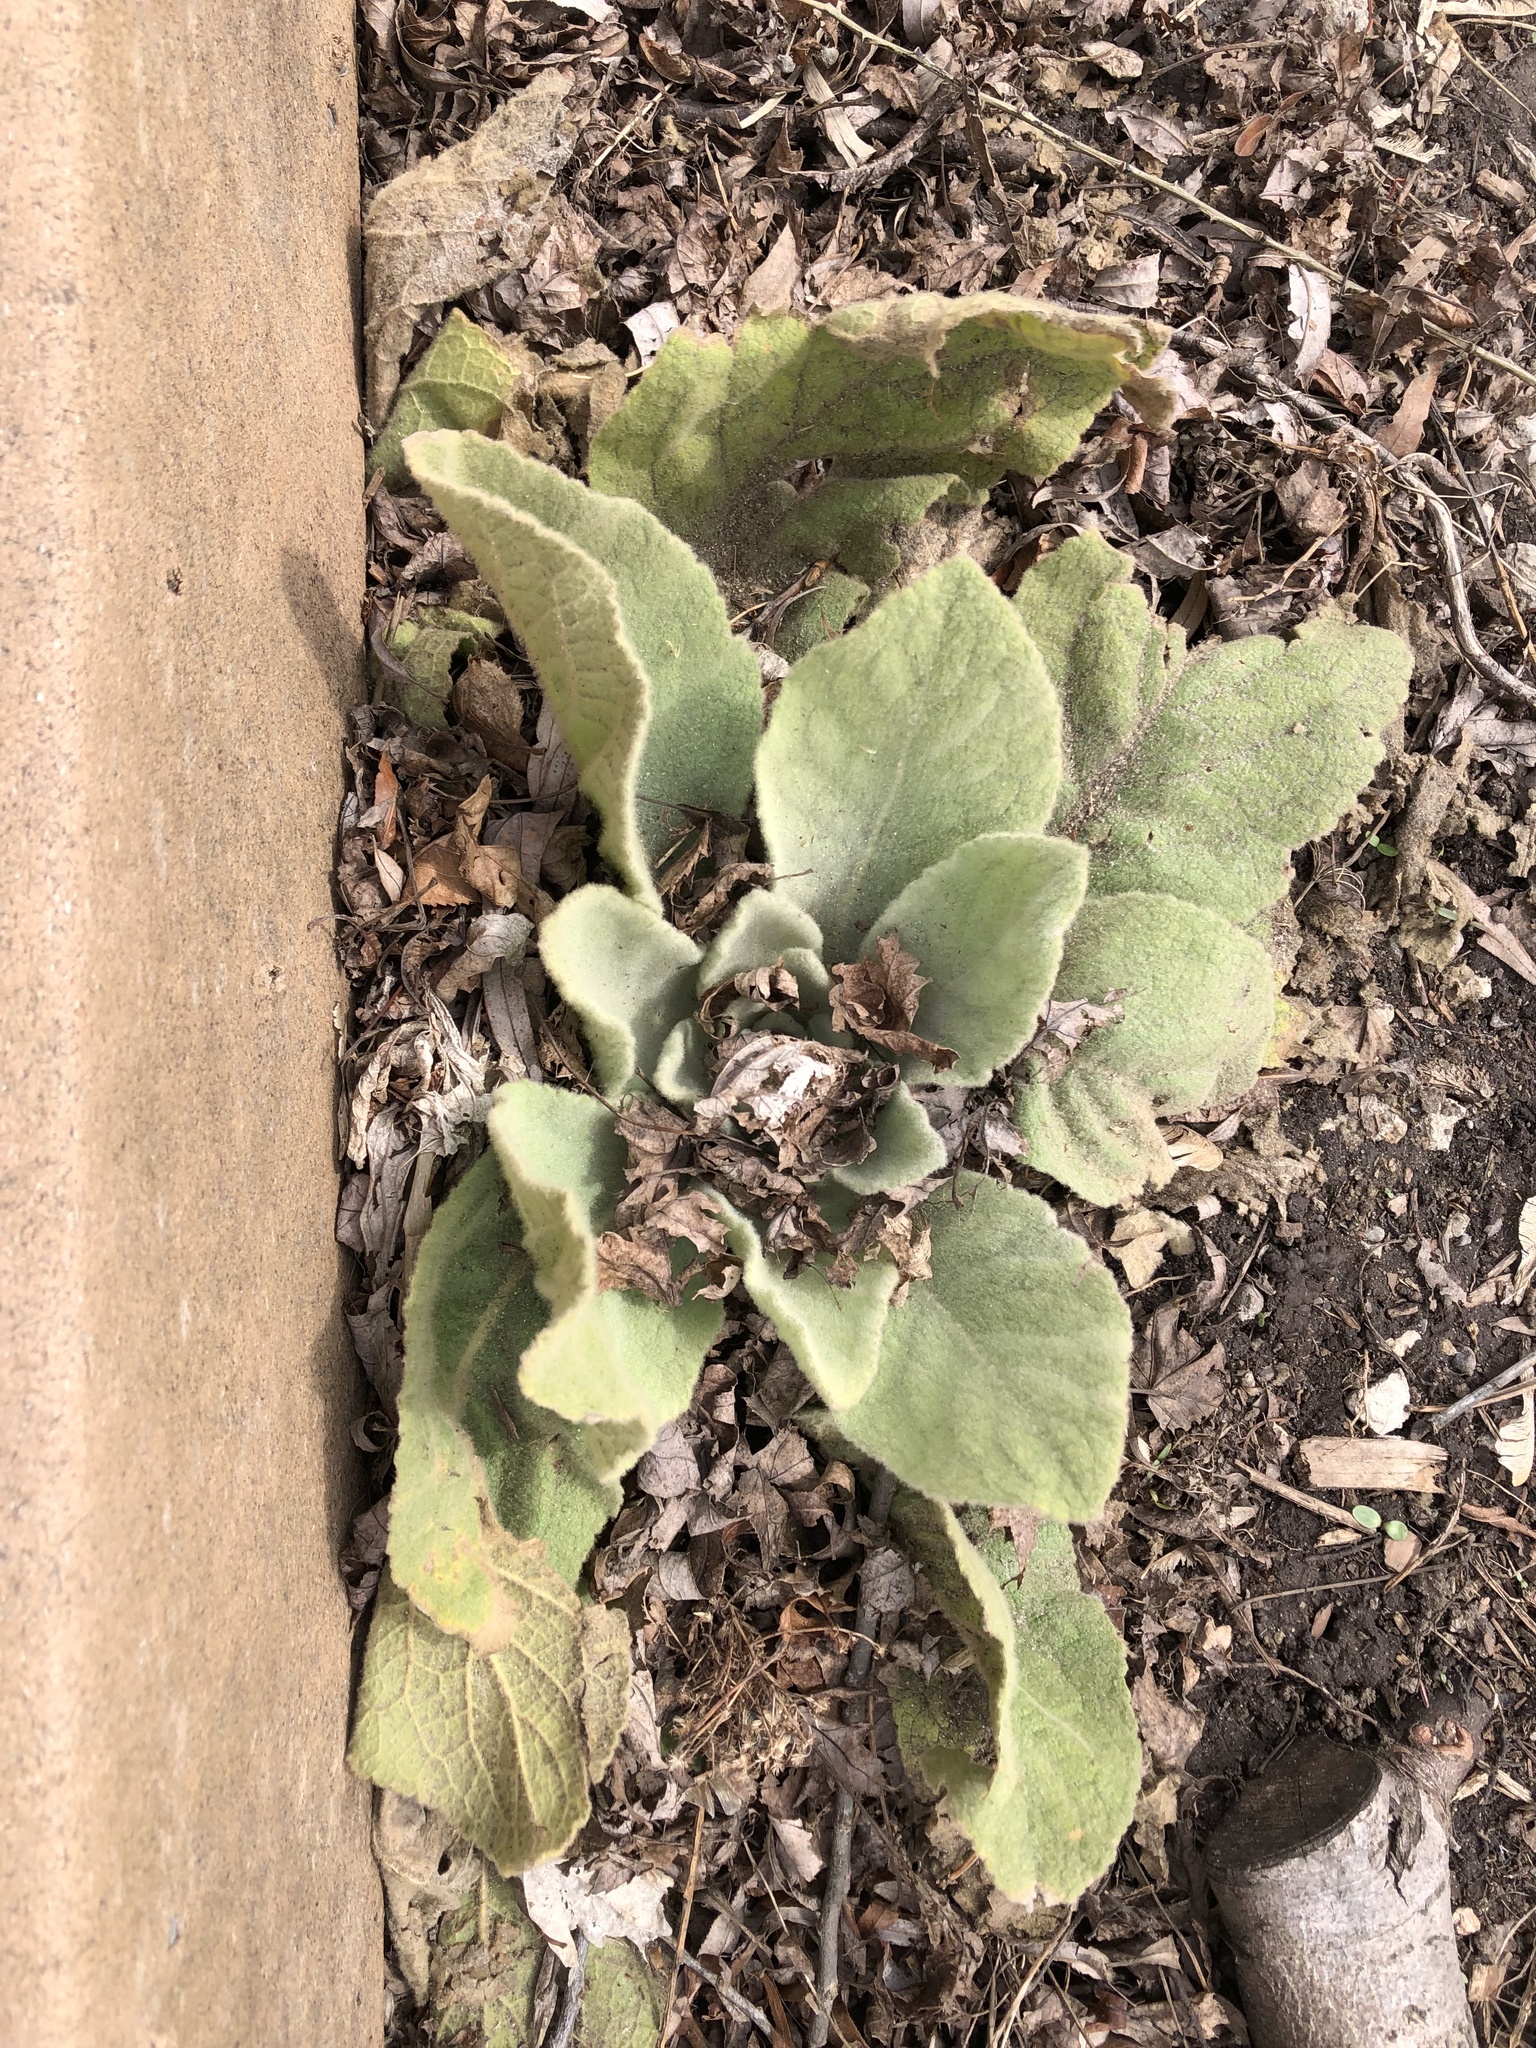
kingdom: Plantae
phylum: Tracheophyta
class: Magnoliopsida
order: Lamiales
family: Scrophulariaceae
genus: Verbascum
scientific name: Verbascum thapsus
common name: Common mullein
